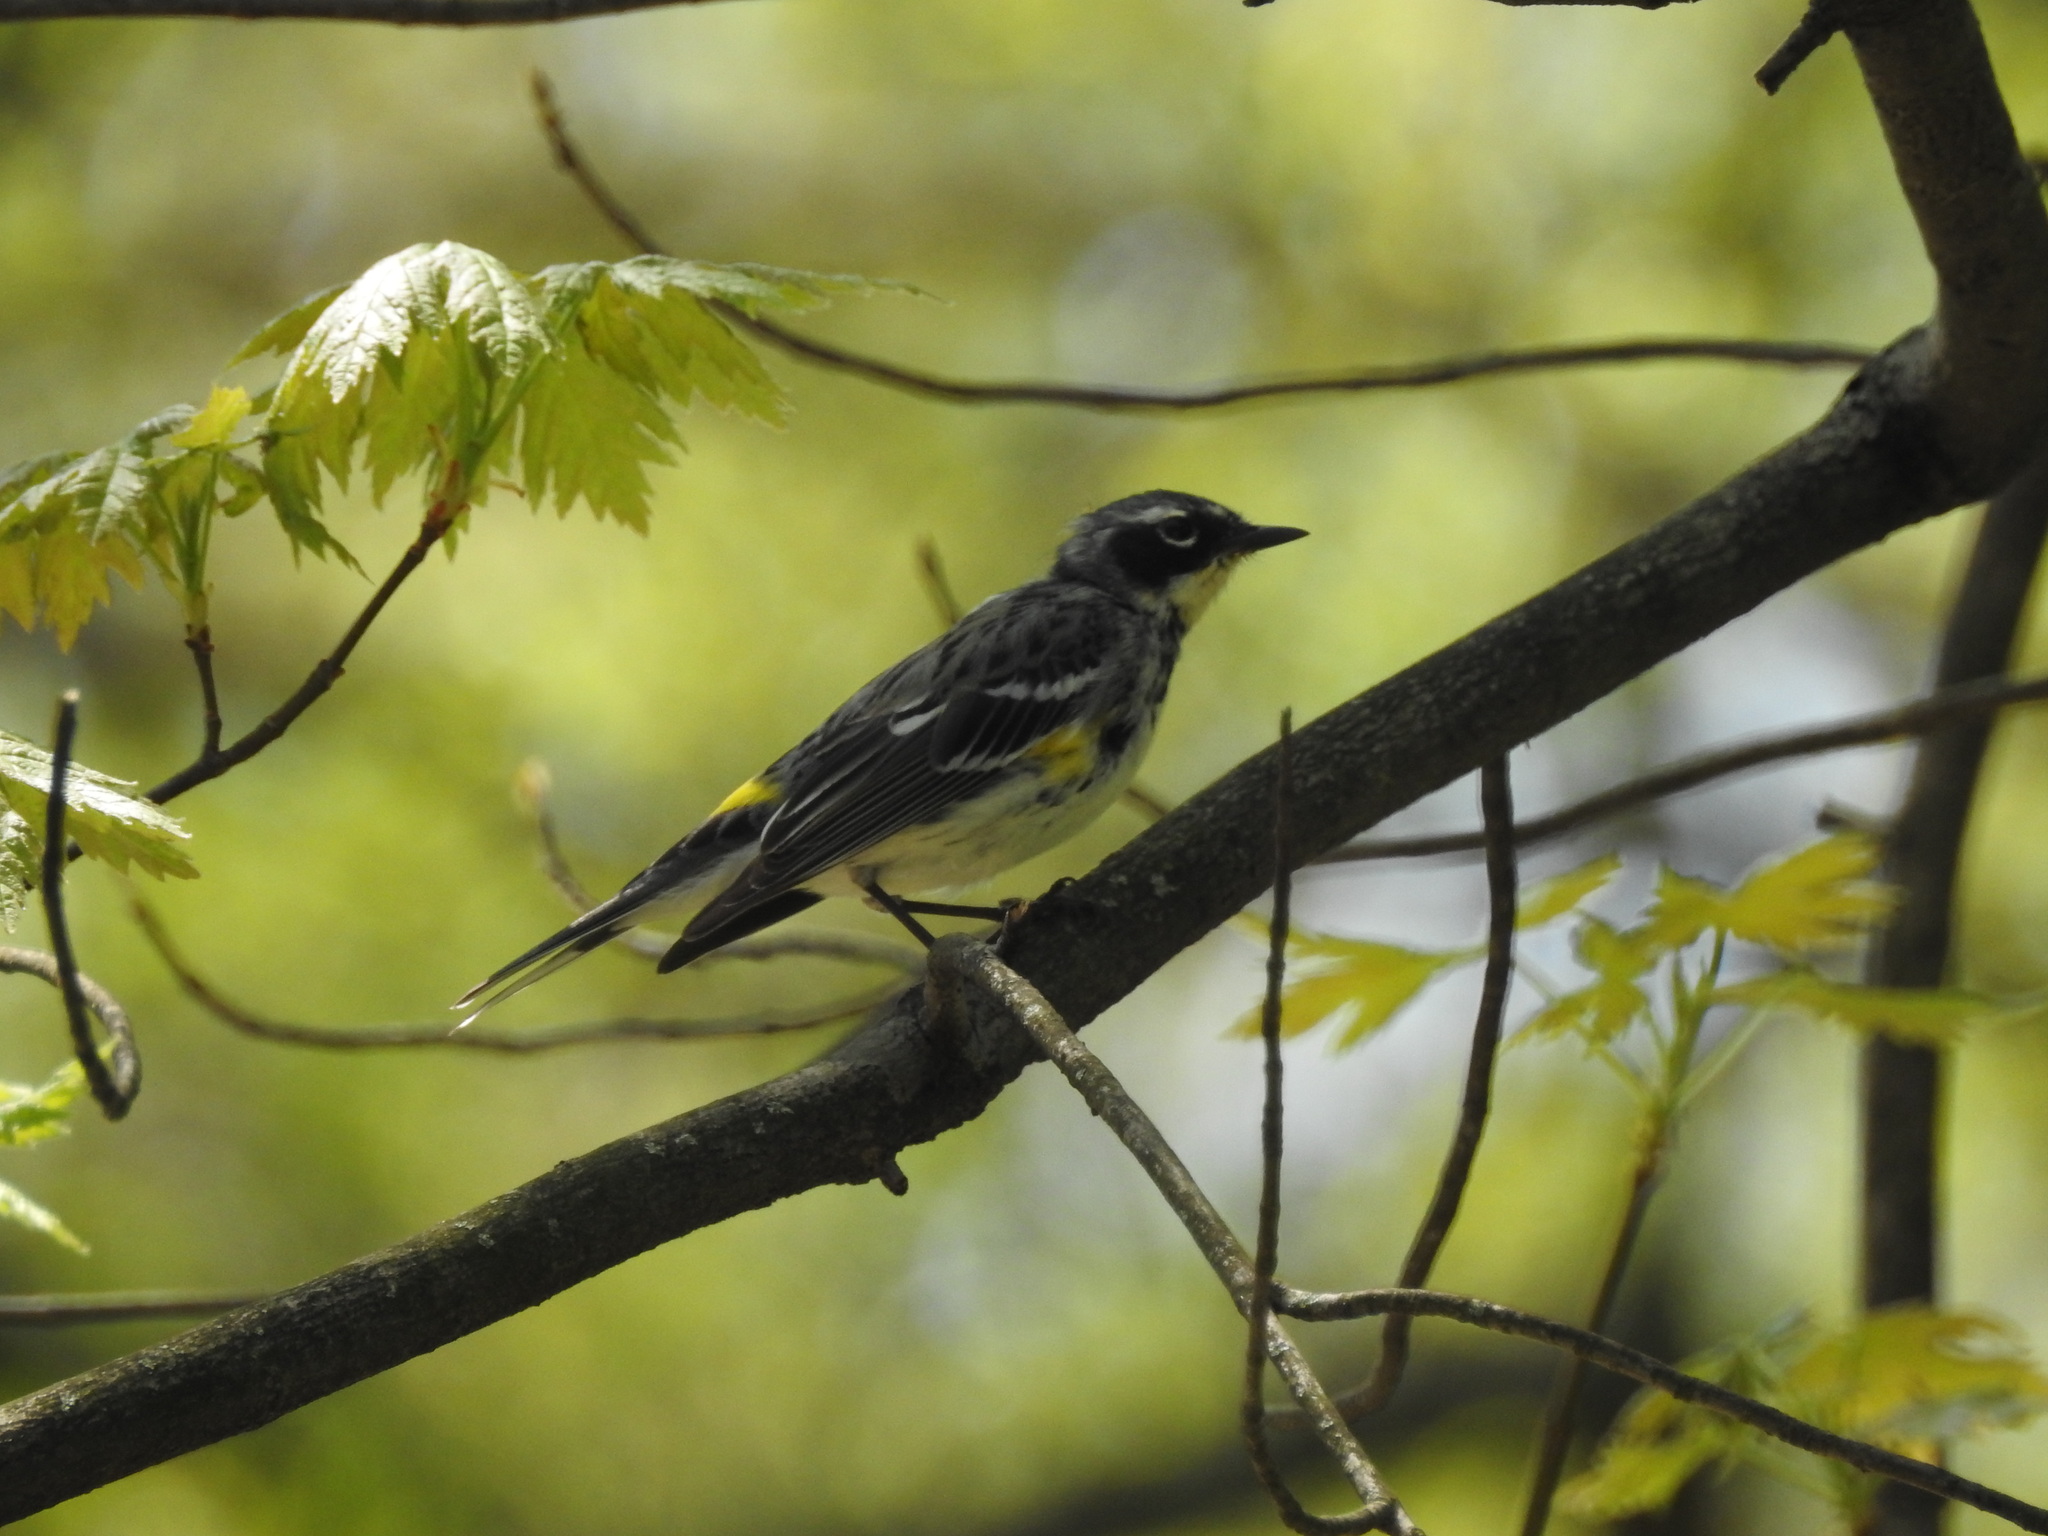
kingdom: Animalia
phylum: Chordata
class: Aves
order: Passeriformes
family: Parulidae
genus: Setophaga
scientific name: Setophaga coronata
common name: Myrtle warbler
